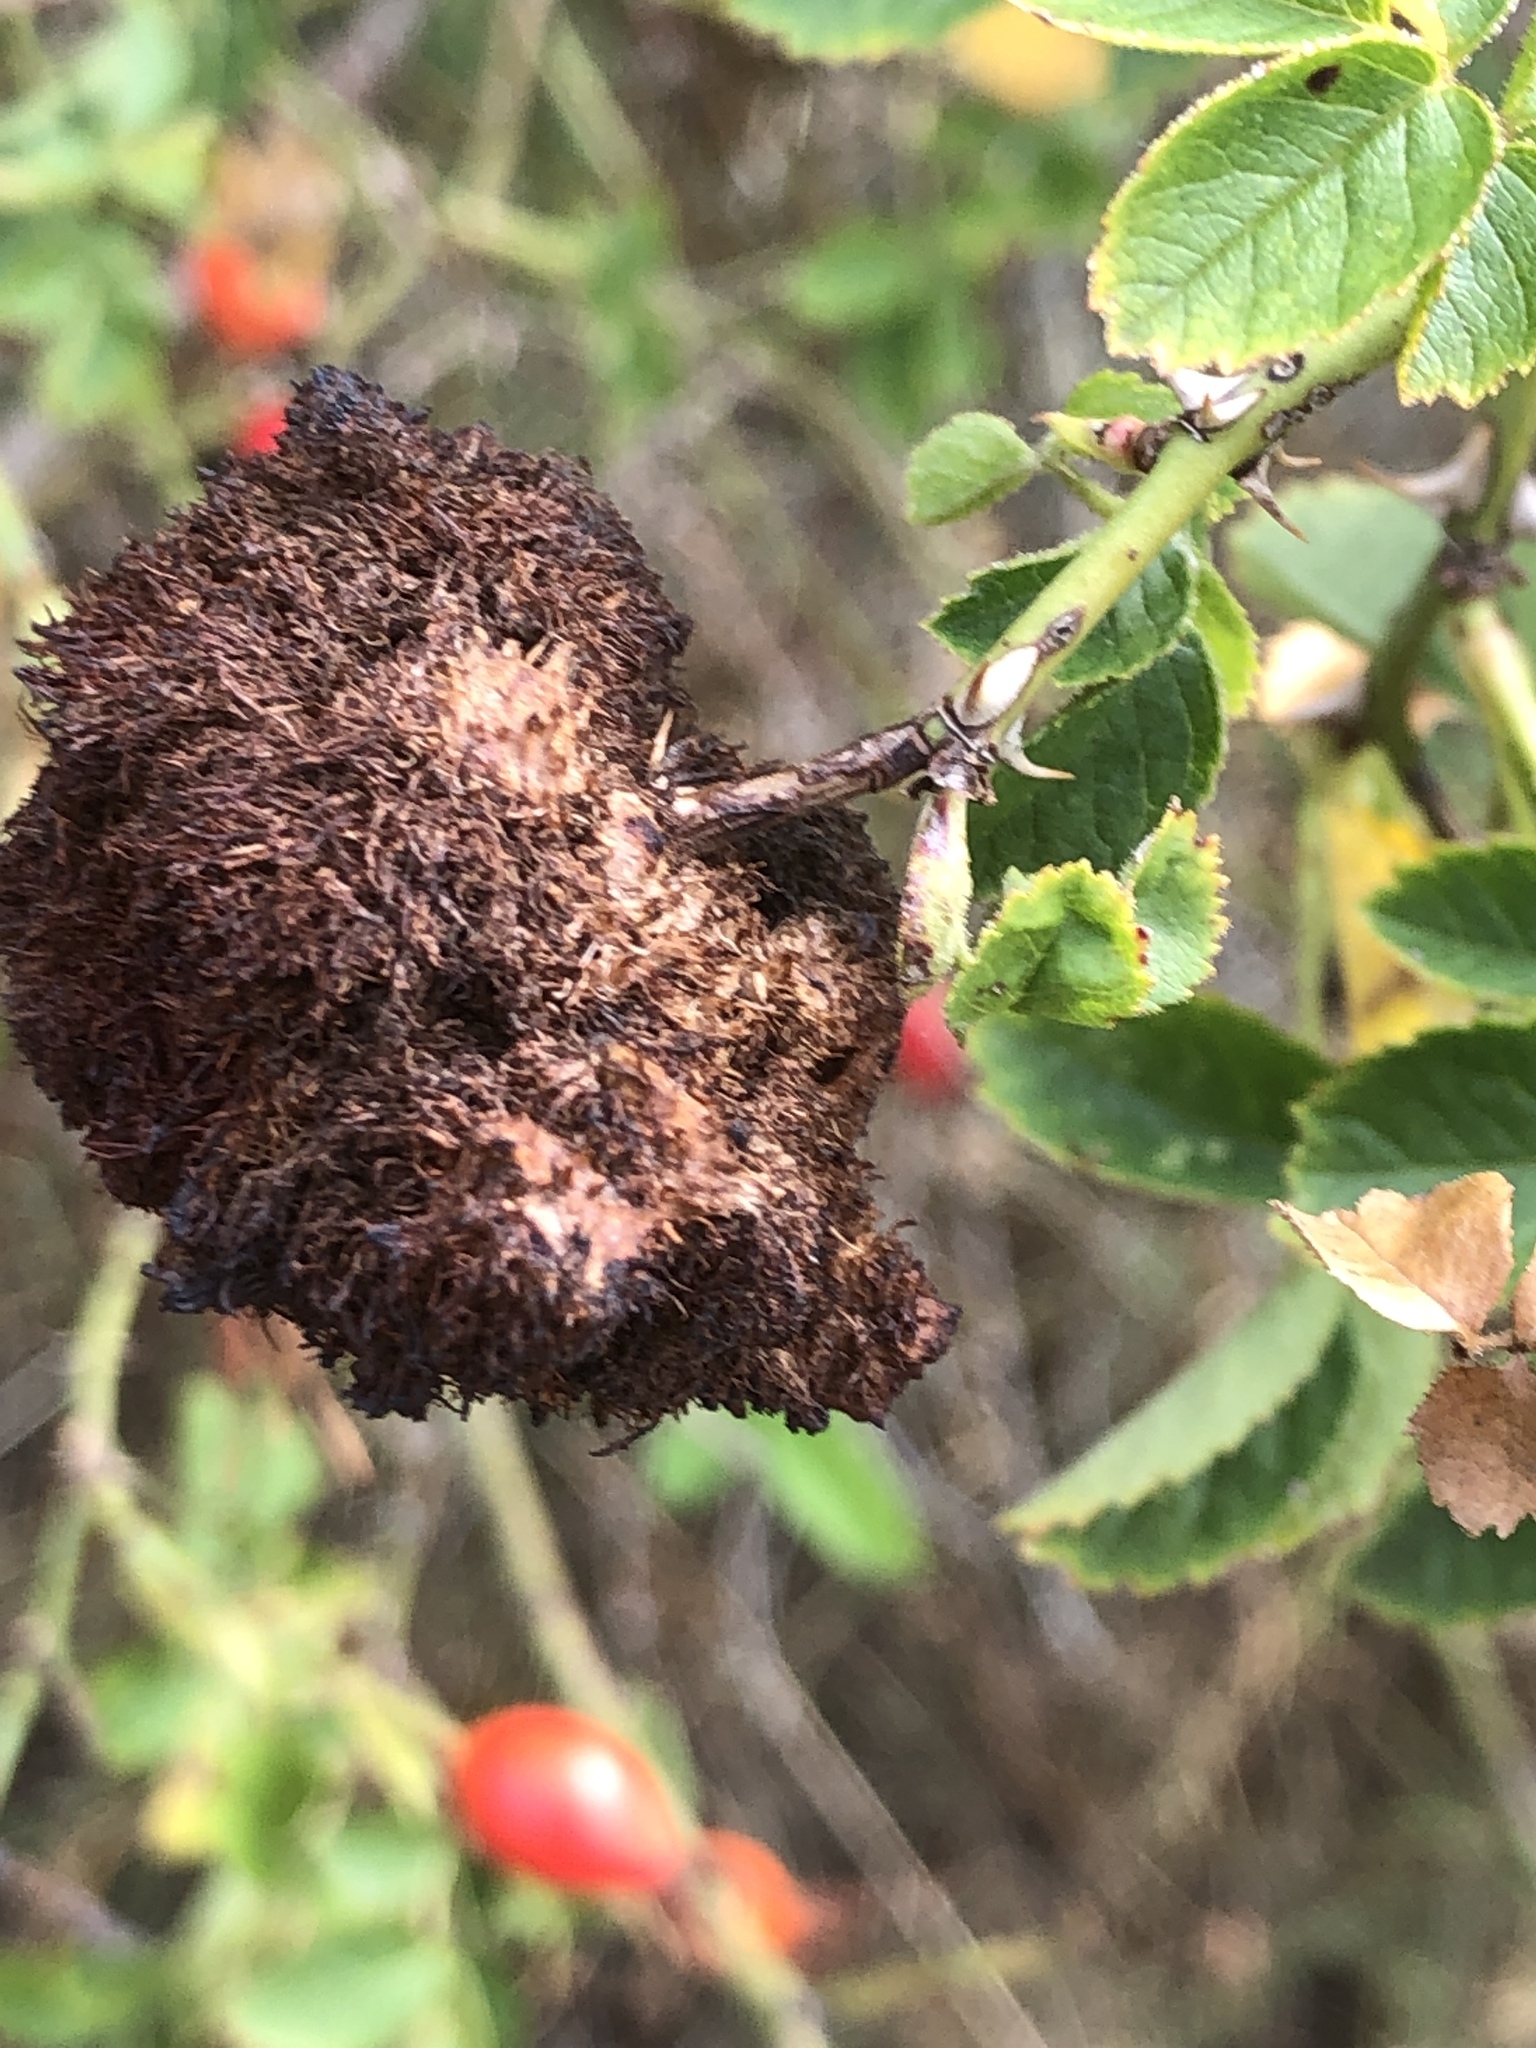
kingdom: Animalia
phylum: Arthropoda
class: Insecta
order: Hymenoptera
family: Cynipidae
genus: Diplolepis
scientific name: Diplolepis rosae
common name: Bedeguar gall
